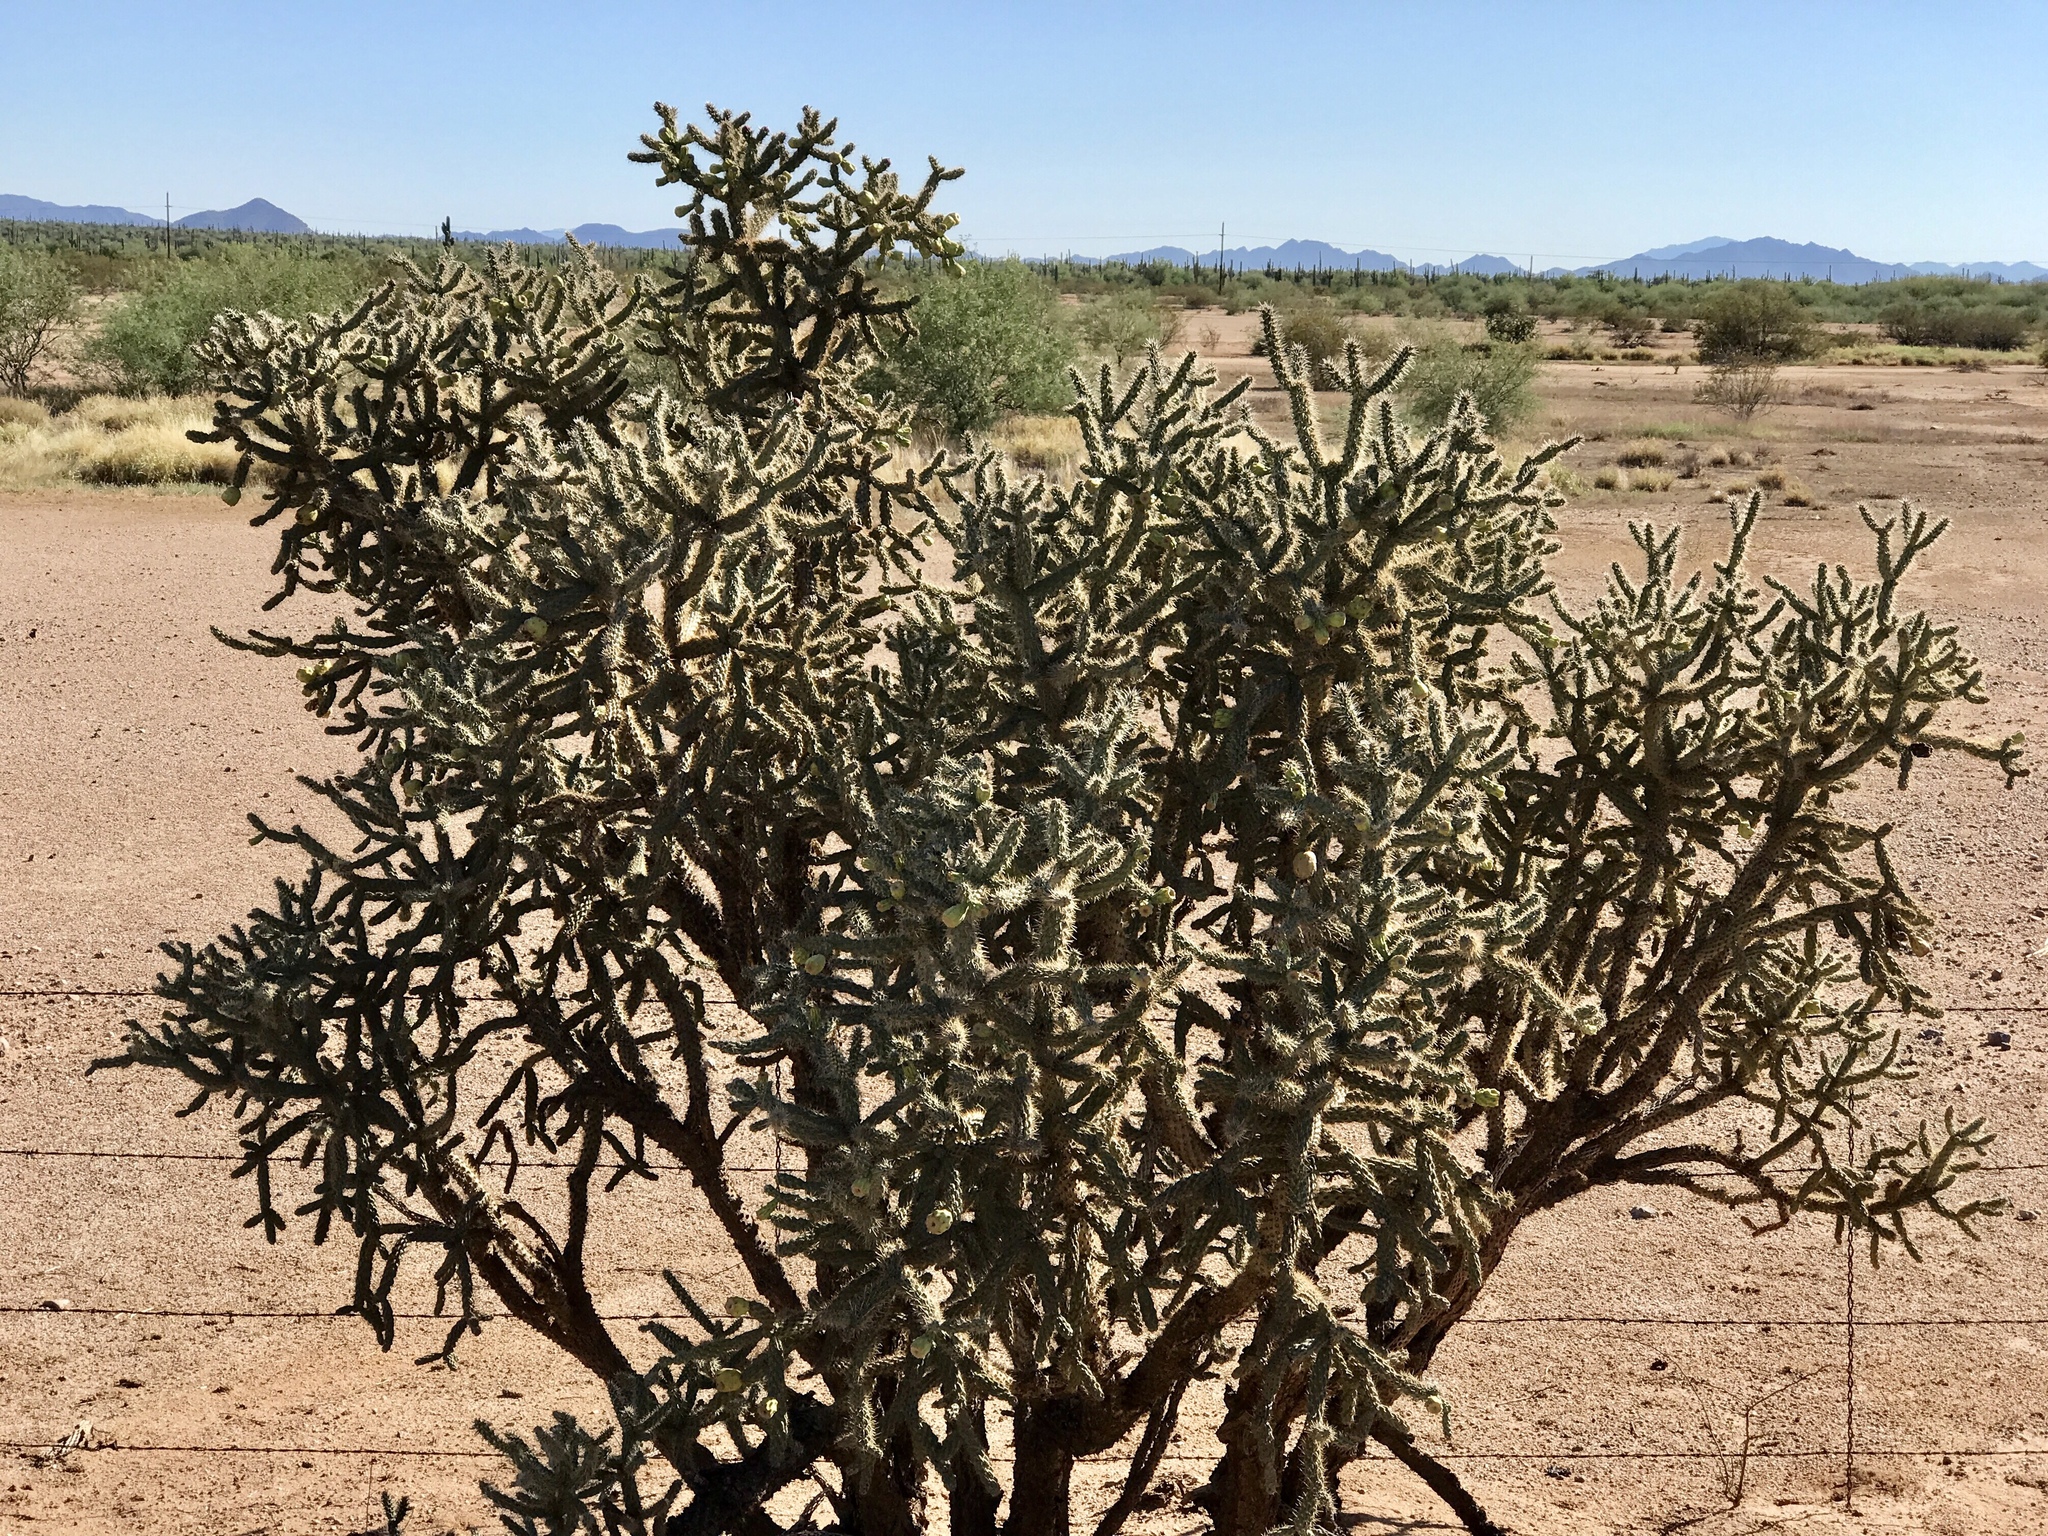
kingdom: Plantae
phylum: Tracheophyta
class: Magnoliopsida
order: Caryophyllales
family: Cactaceae
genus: Cylindropuntia
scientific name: Cylindropuntia thurberi
